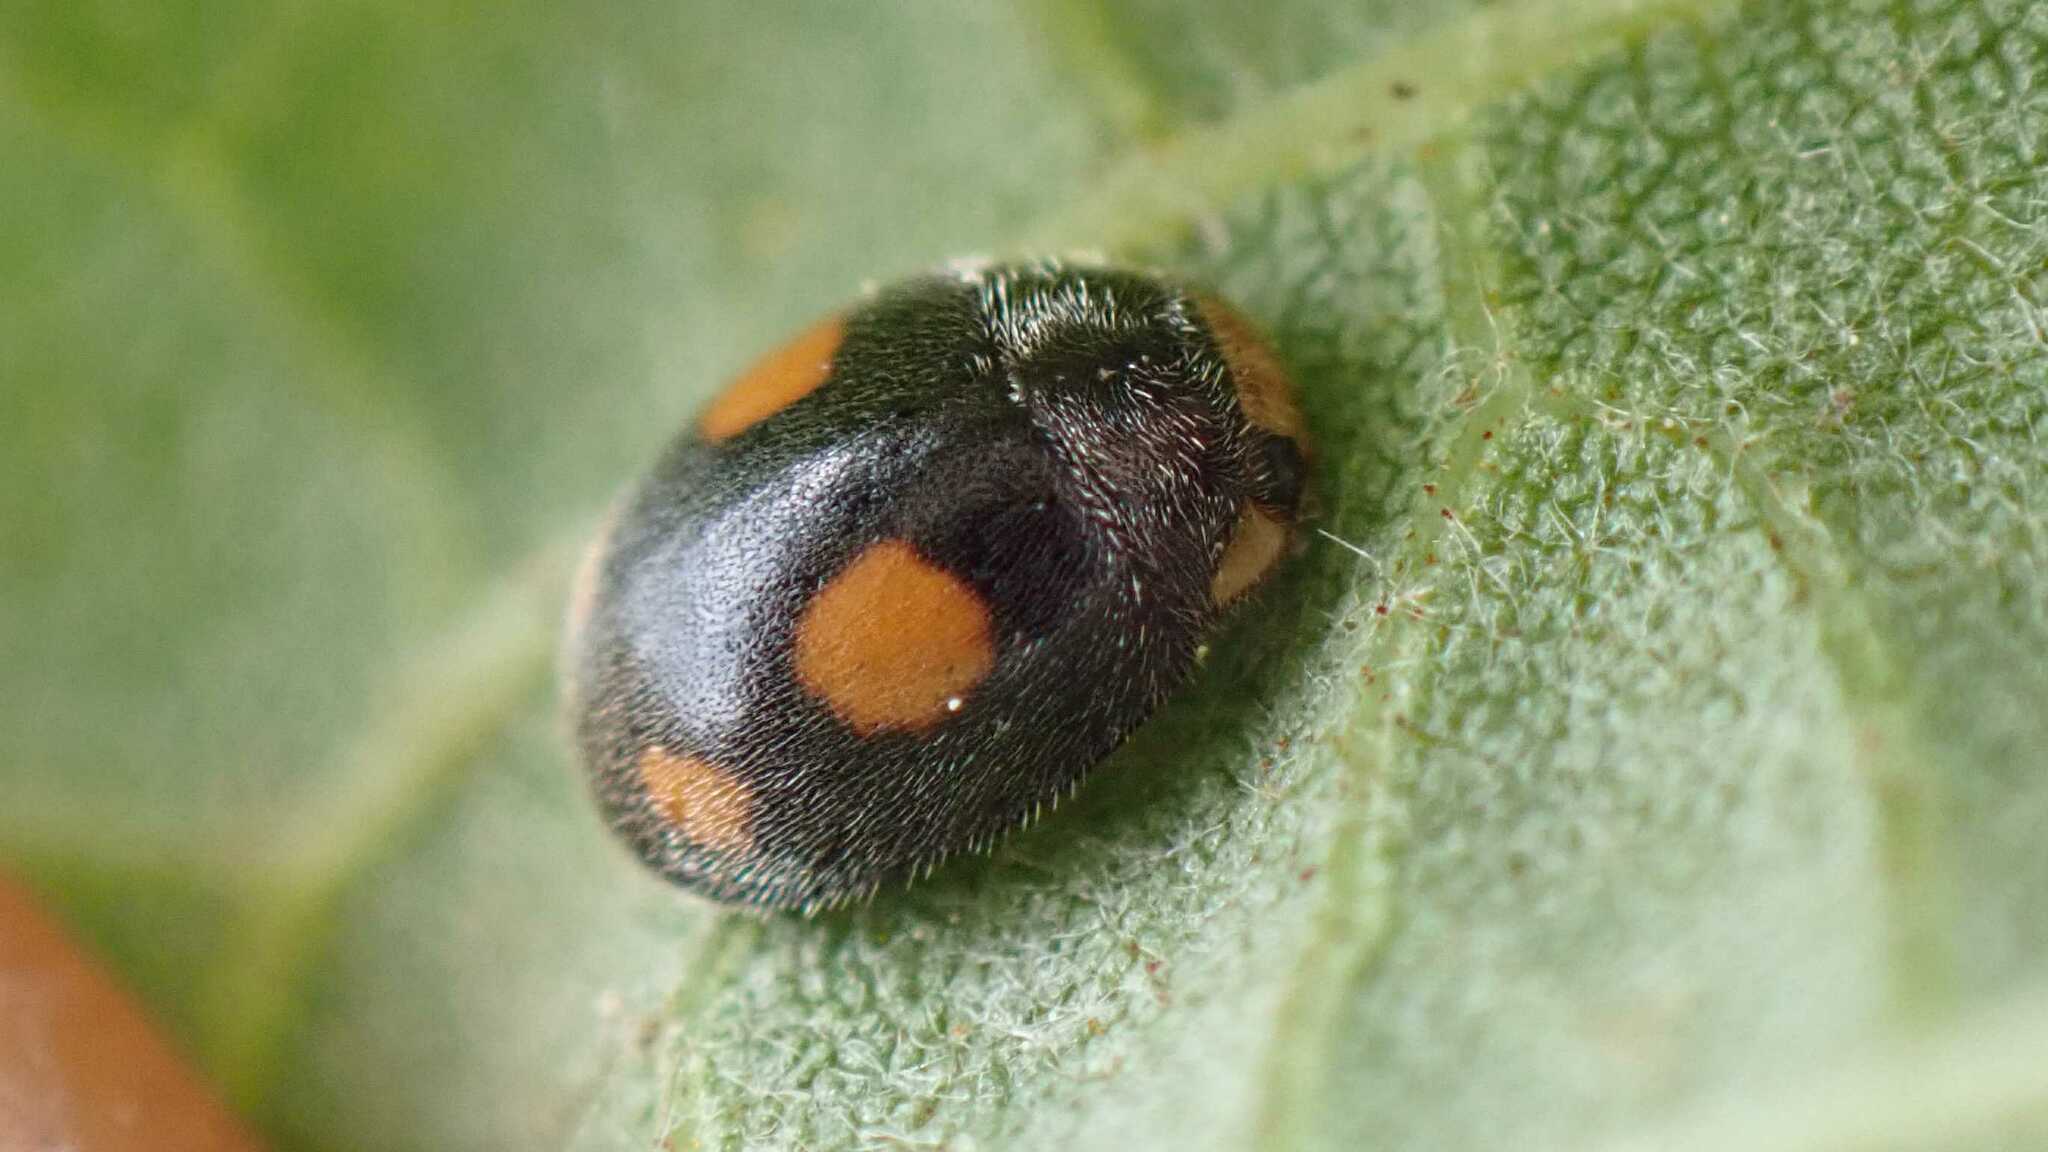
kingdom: Animalia
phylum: Arthropoda
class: Insecta
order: Coleoptera
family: Coccinellidae
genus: Platynaspis
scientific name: Platynaspis luteorubra
